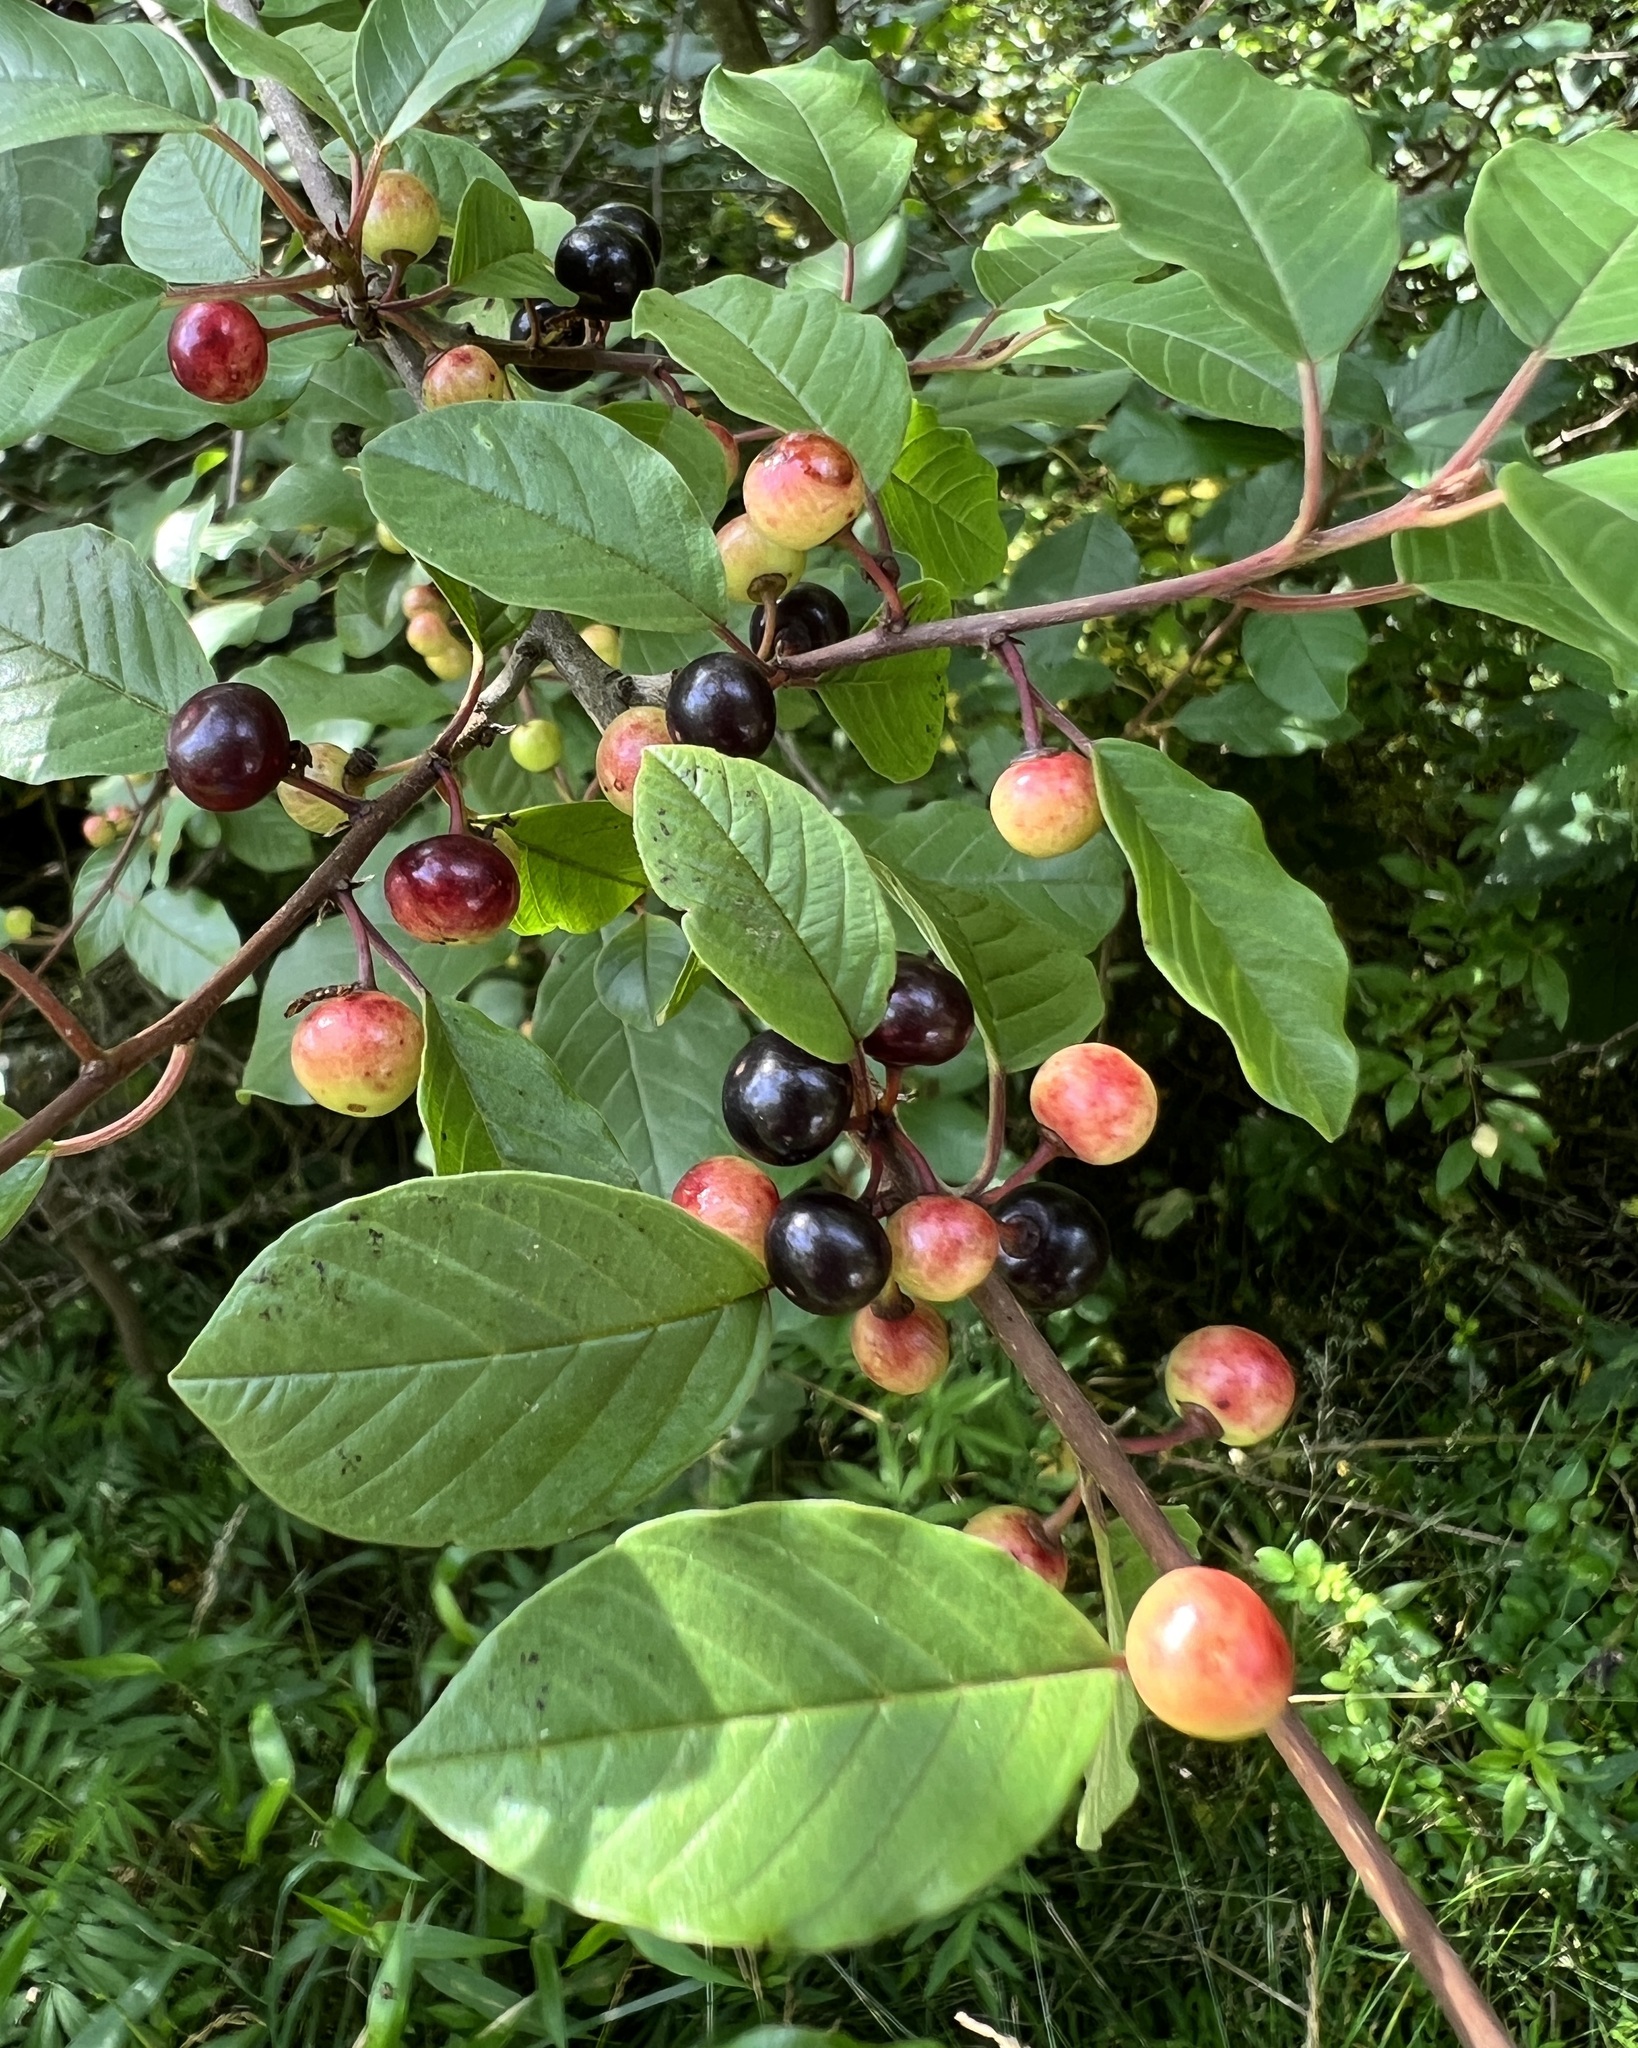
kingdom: Plantae
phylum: Tracheophyta
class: Magnoliopsida
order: Rosales
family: Rhamnaceae
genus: Frangula
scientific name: Frangula alnus
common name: Alder buckthorn
